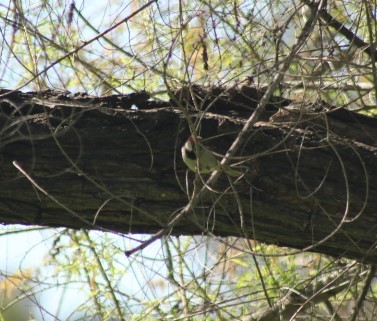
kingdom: Animalia
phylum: Chordata
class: Aves
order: Passeriformes
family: Passeridae
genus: Passer
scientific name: Passer domesticus
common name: House sparrow
